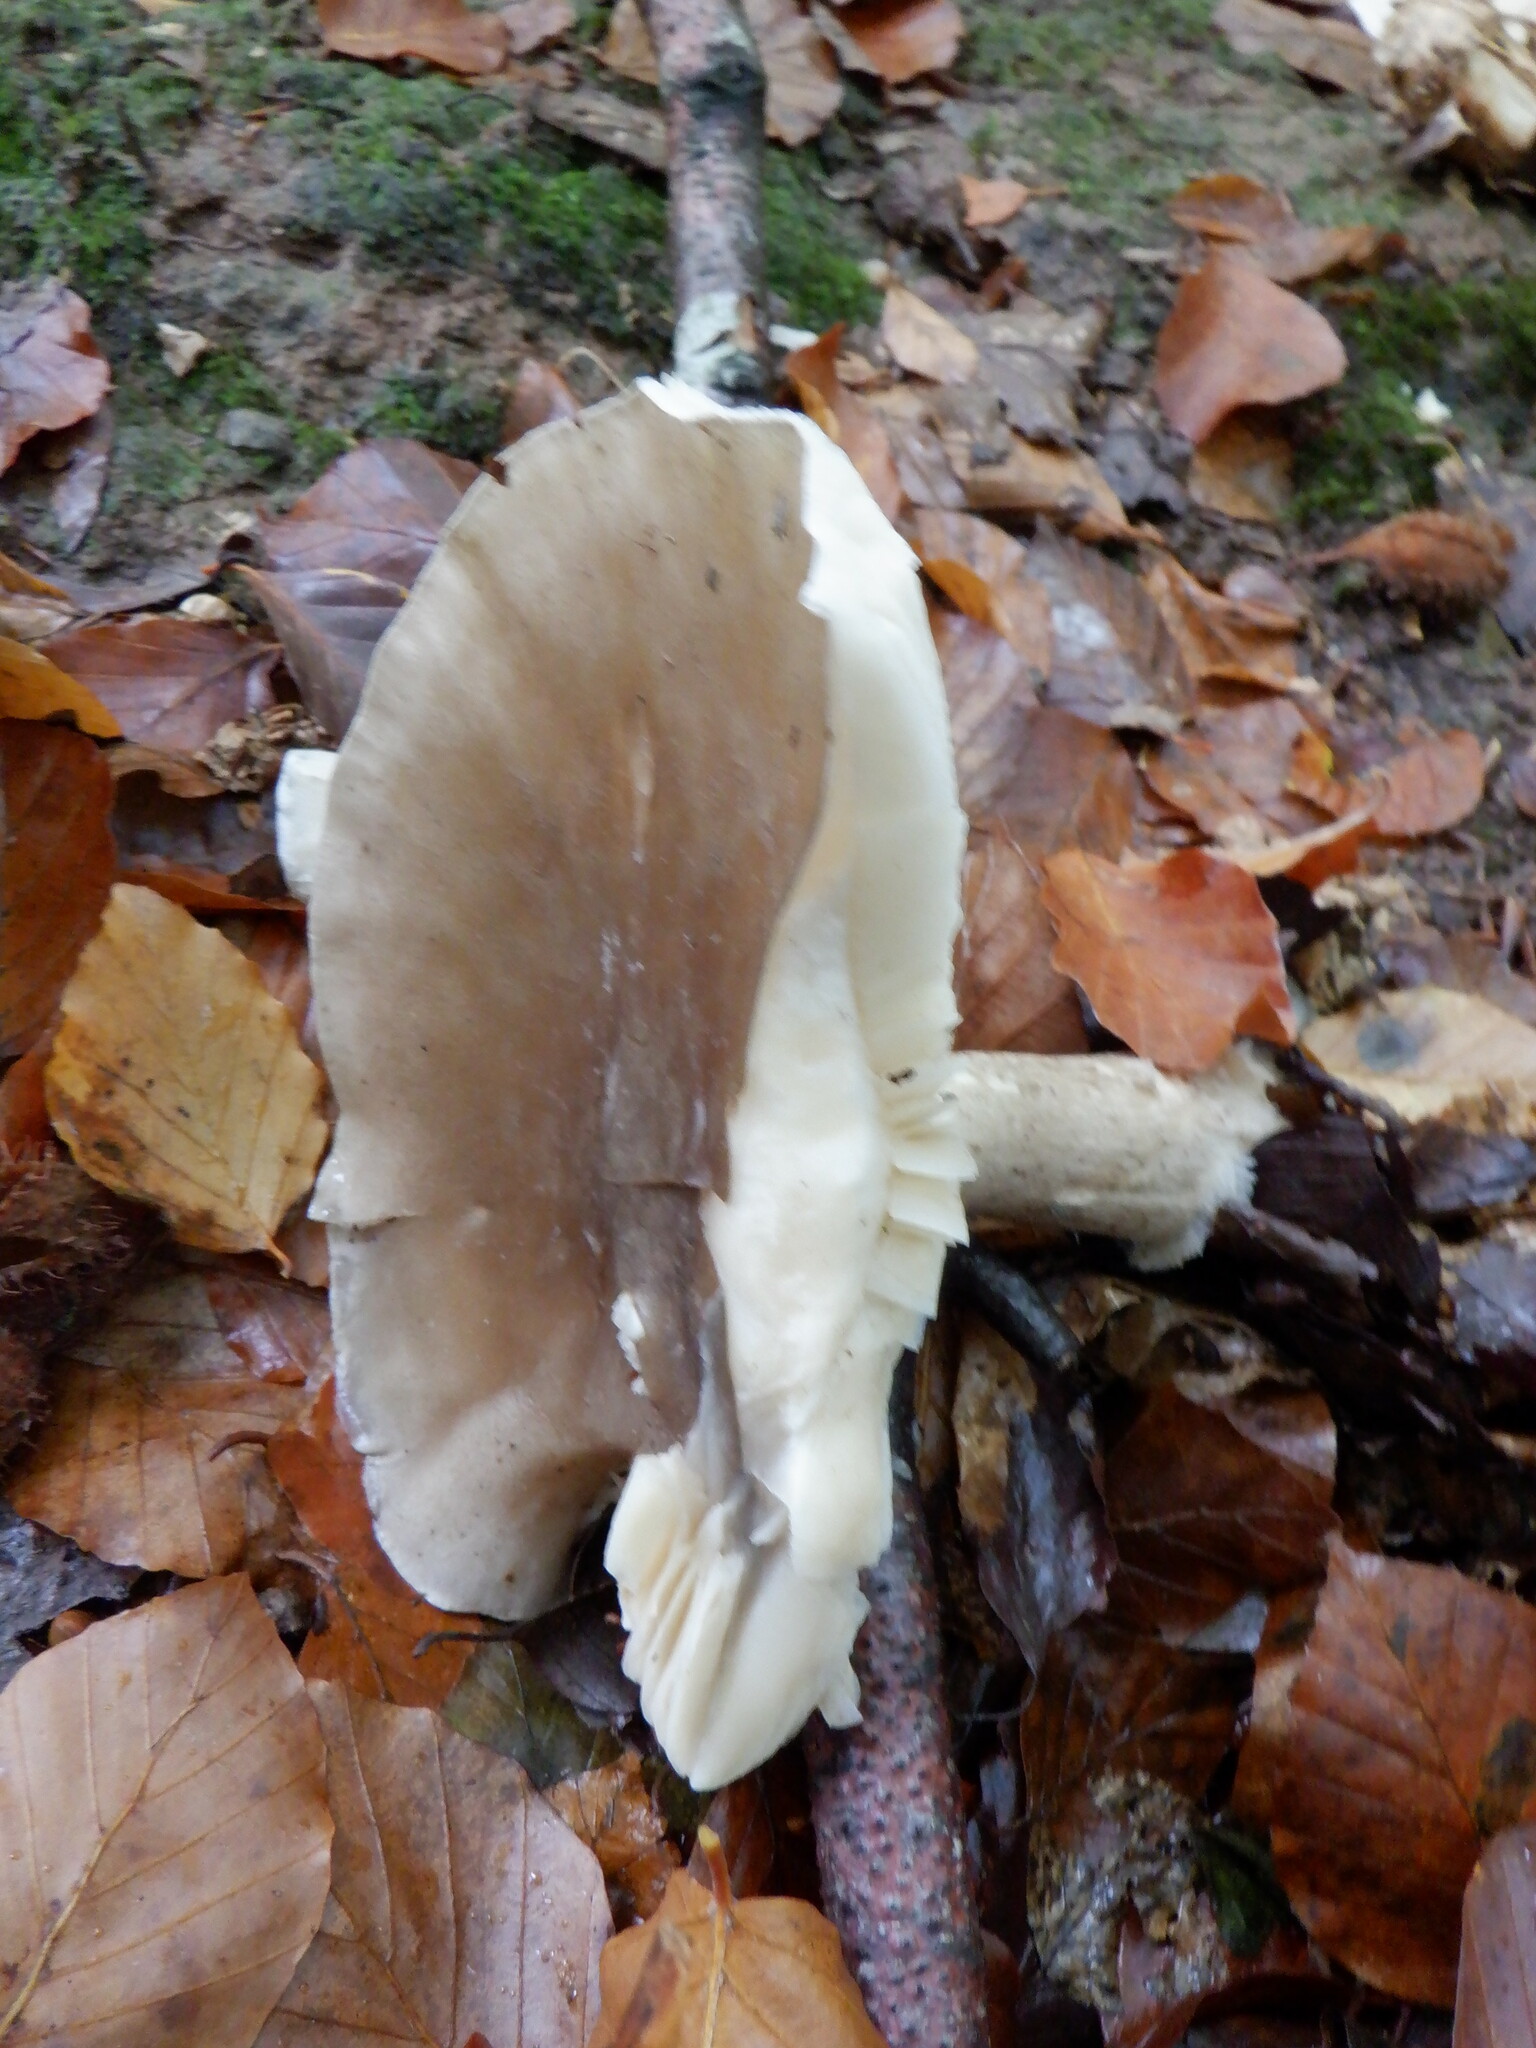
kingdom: Fungi
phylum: Basidiomycota
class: Agaricomycetes
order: Agaricales
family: Tricholomataceae
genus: Clitocybe
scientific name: Clitocybe nebularis
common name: Clouded agaric
